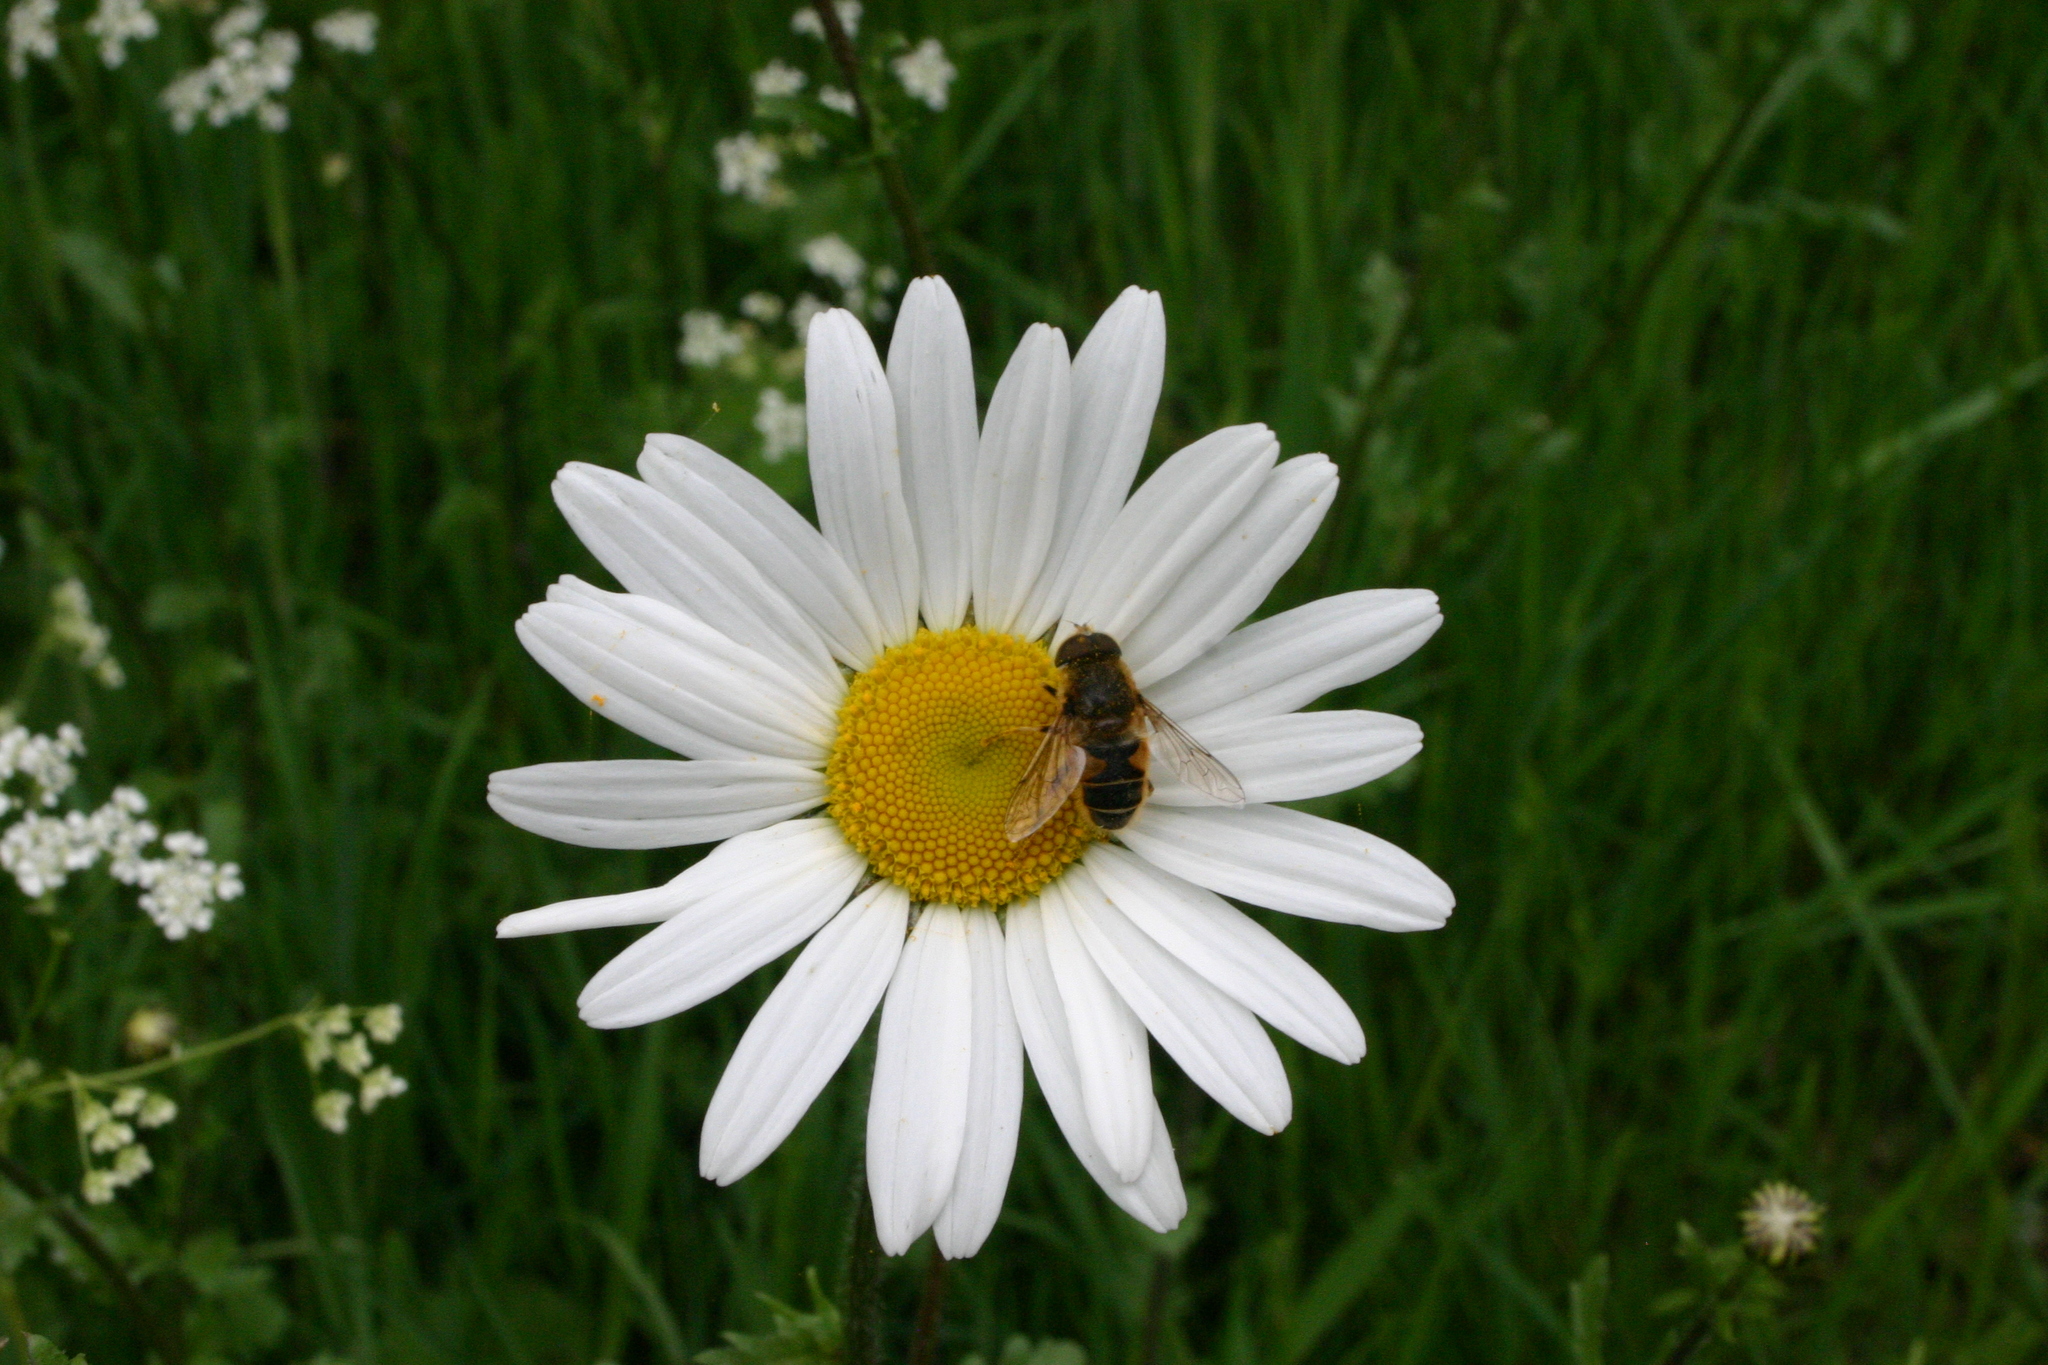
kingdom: Plantae
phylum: Tracheophyta
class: Magnoliopsida
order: Asterales
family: Asteraceae
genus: Leucanthemum
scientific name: Leucanthemum vulgare
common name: Oxeye daisy
